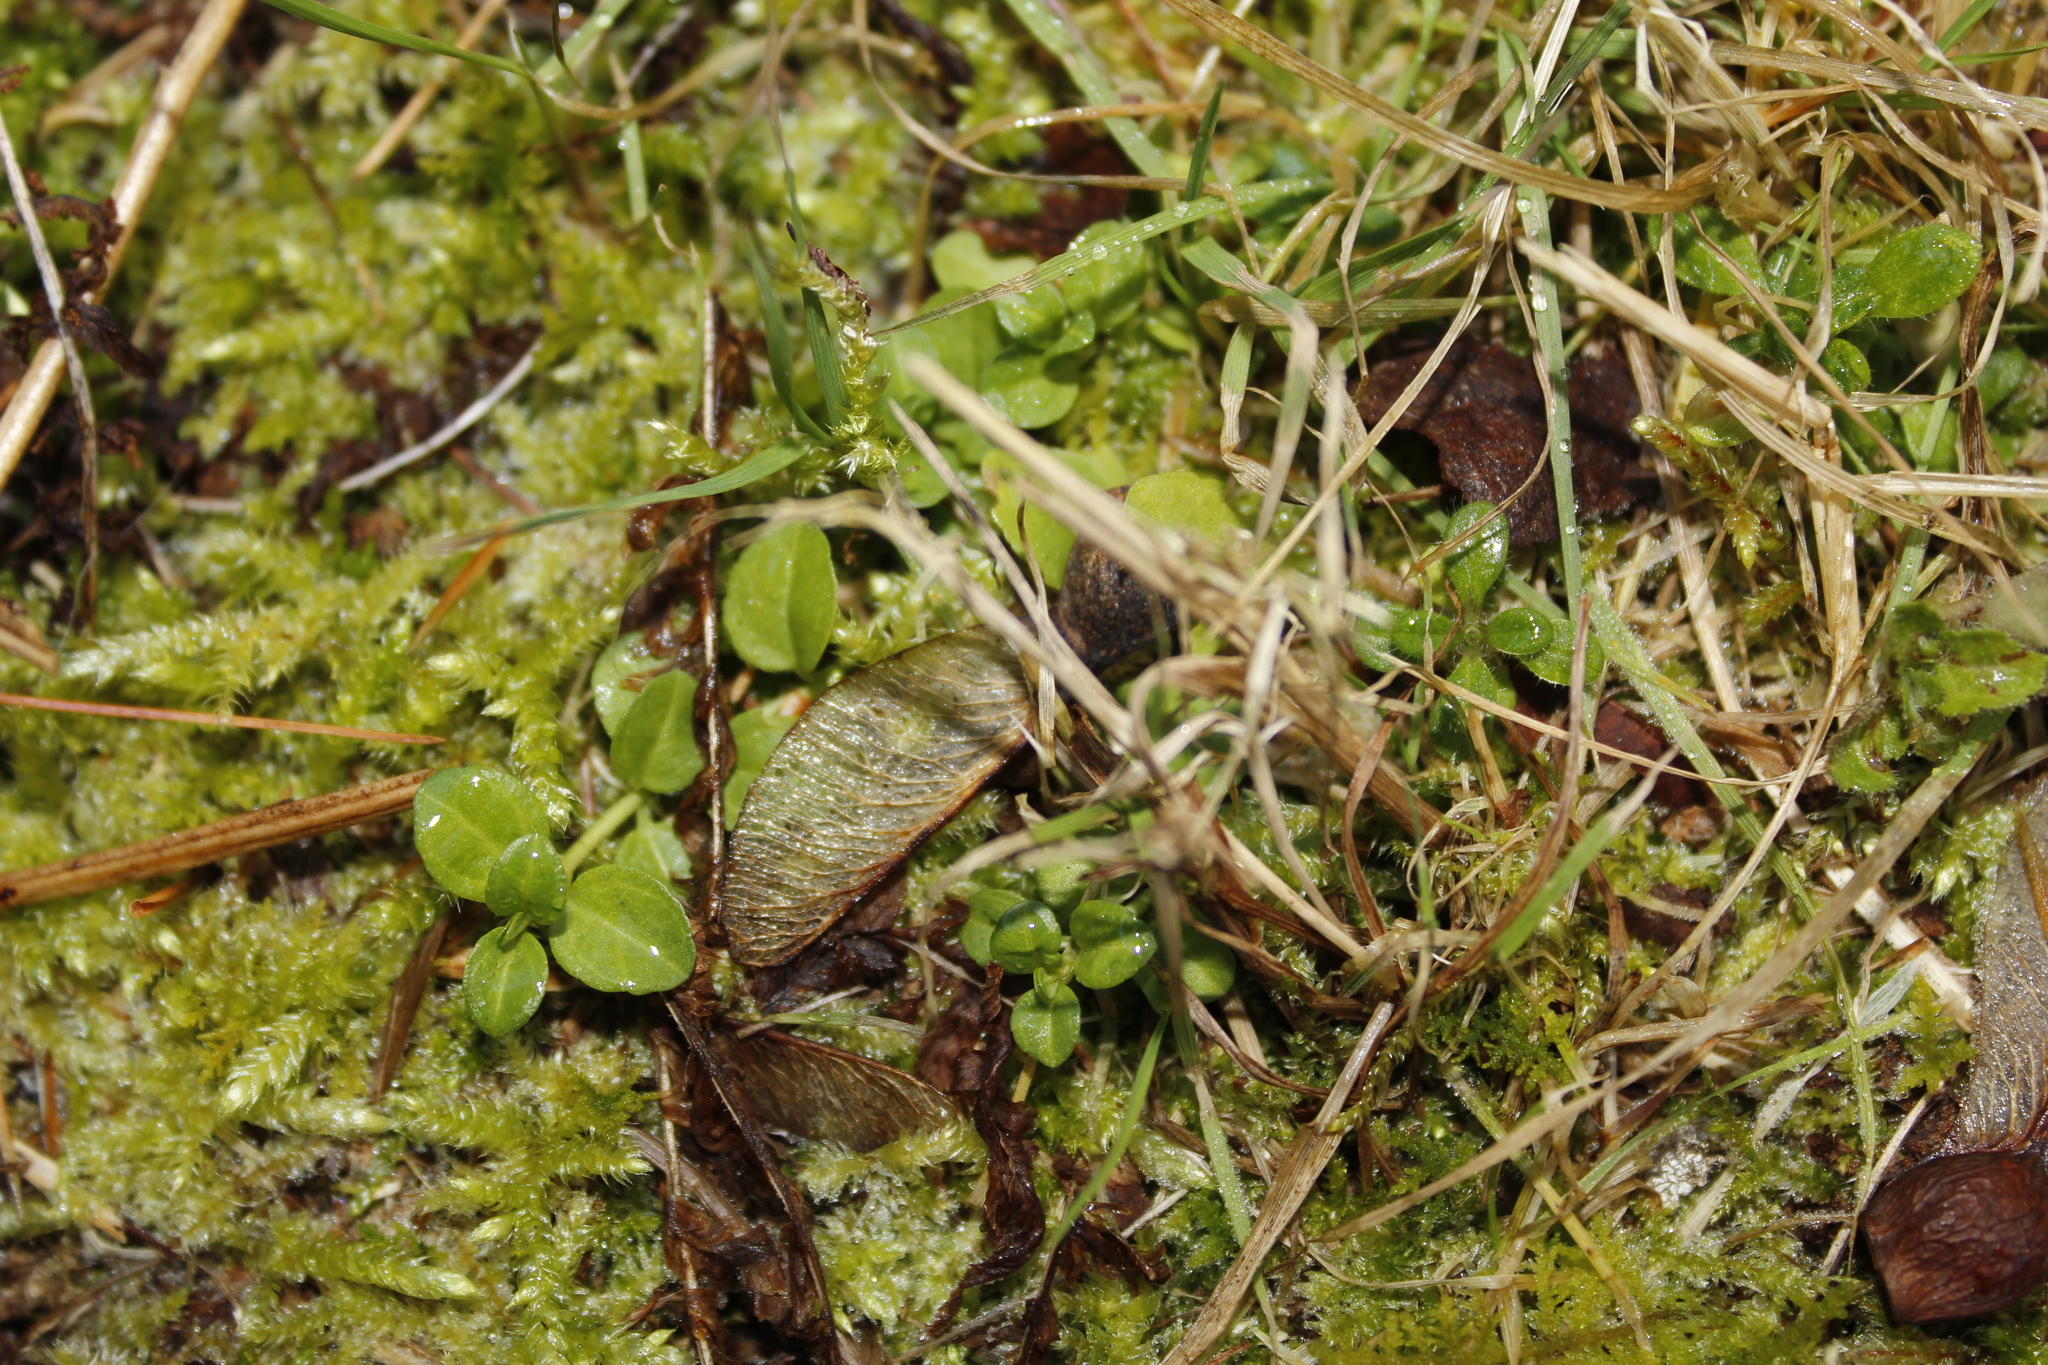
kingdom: Plantae
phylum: Tracheophyta
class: Magnoliopsida
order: Lamiales
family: Plantaginaceae
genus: Veronica
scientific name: Veronica serpyllifolia
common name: Thyme-leaved speedwell
